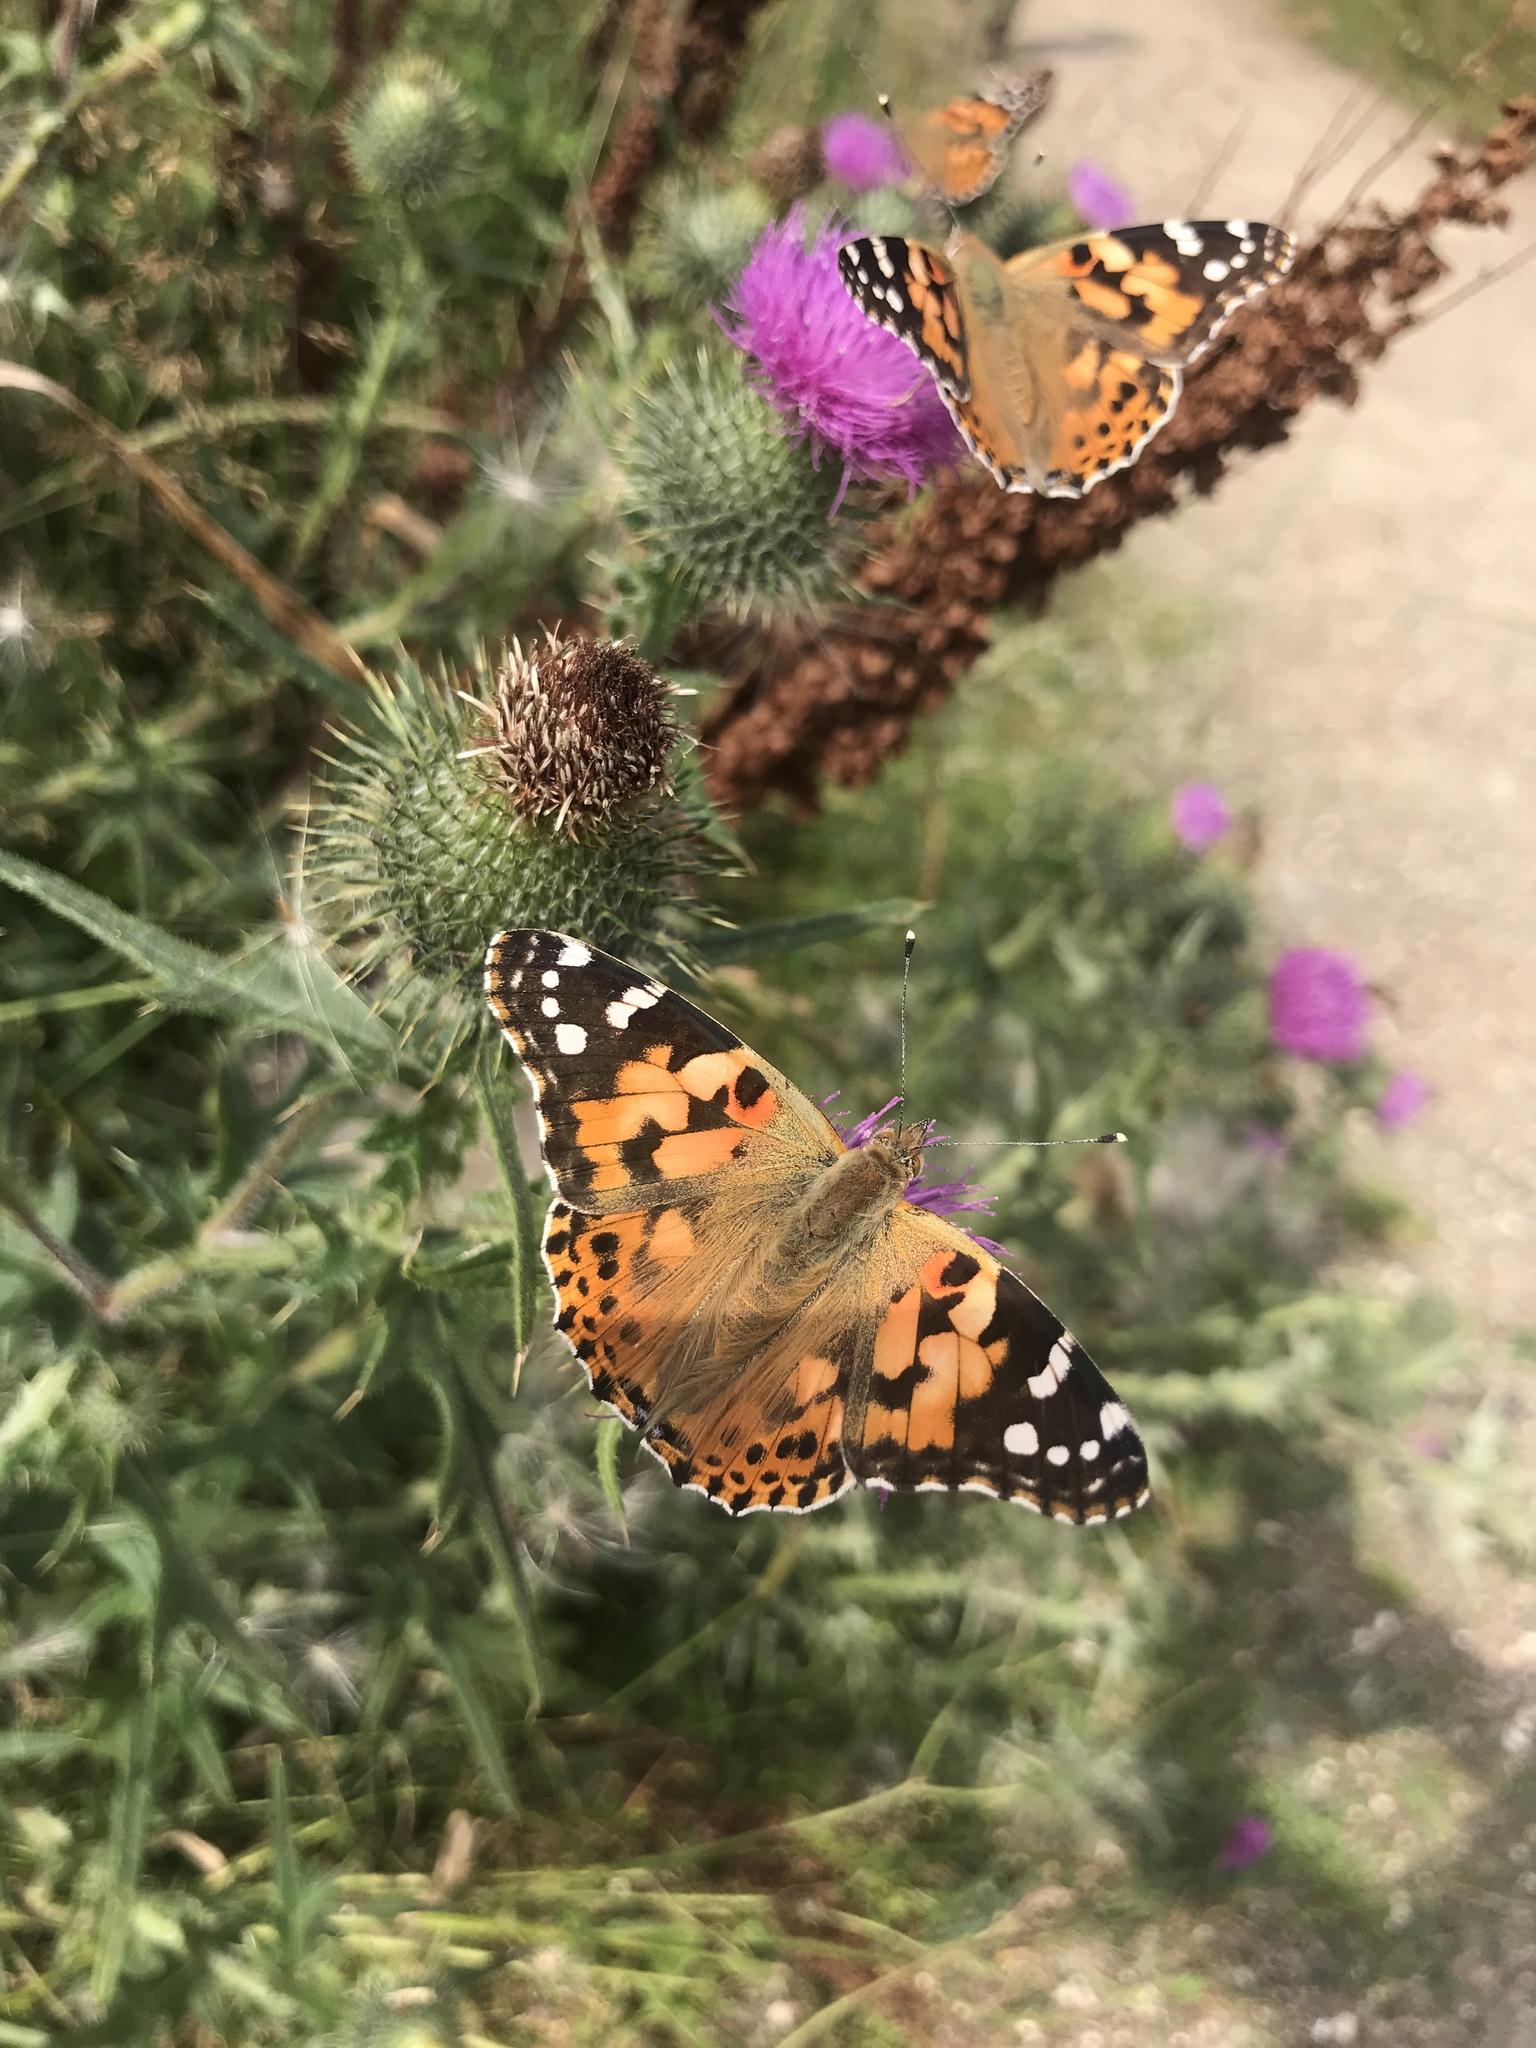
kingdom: Animalia
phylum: Arthropoda
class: Insecta
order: Lepidoptera
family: Nymphalidae
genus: Vanessa
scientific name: Vanessa cardui
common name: Painted lady
